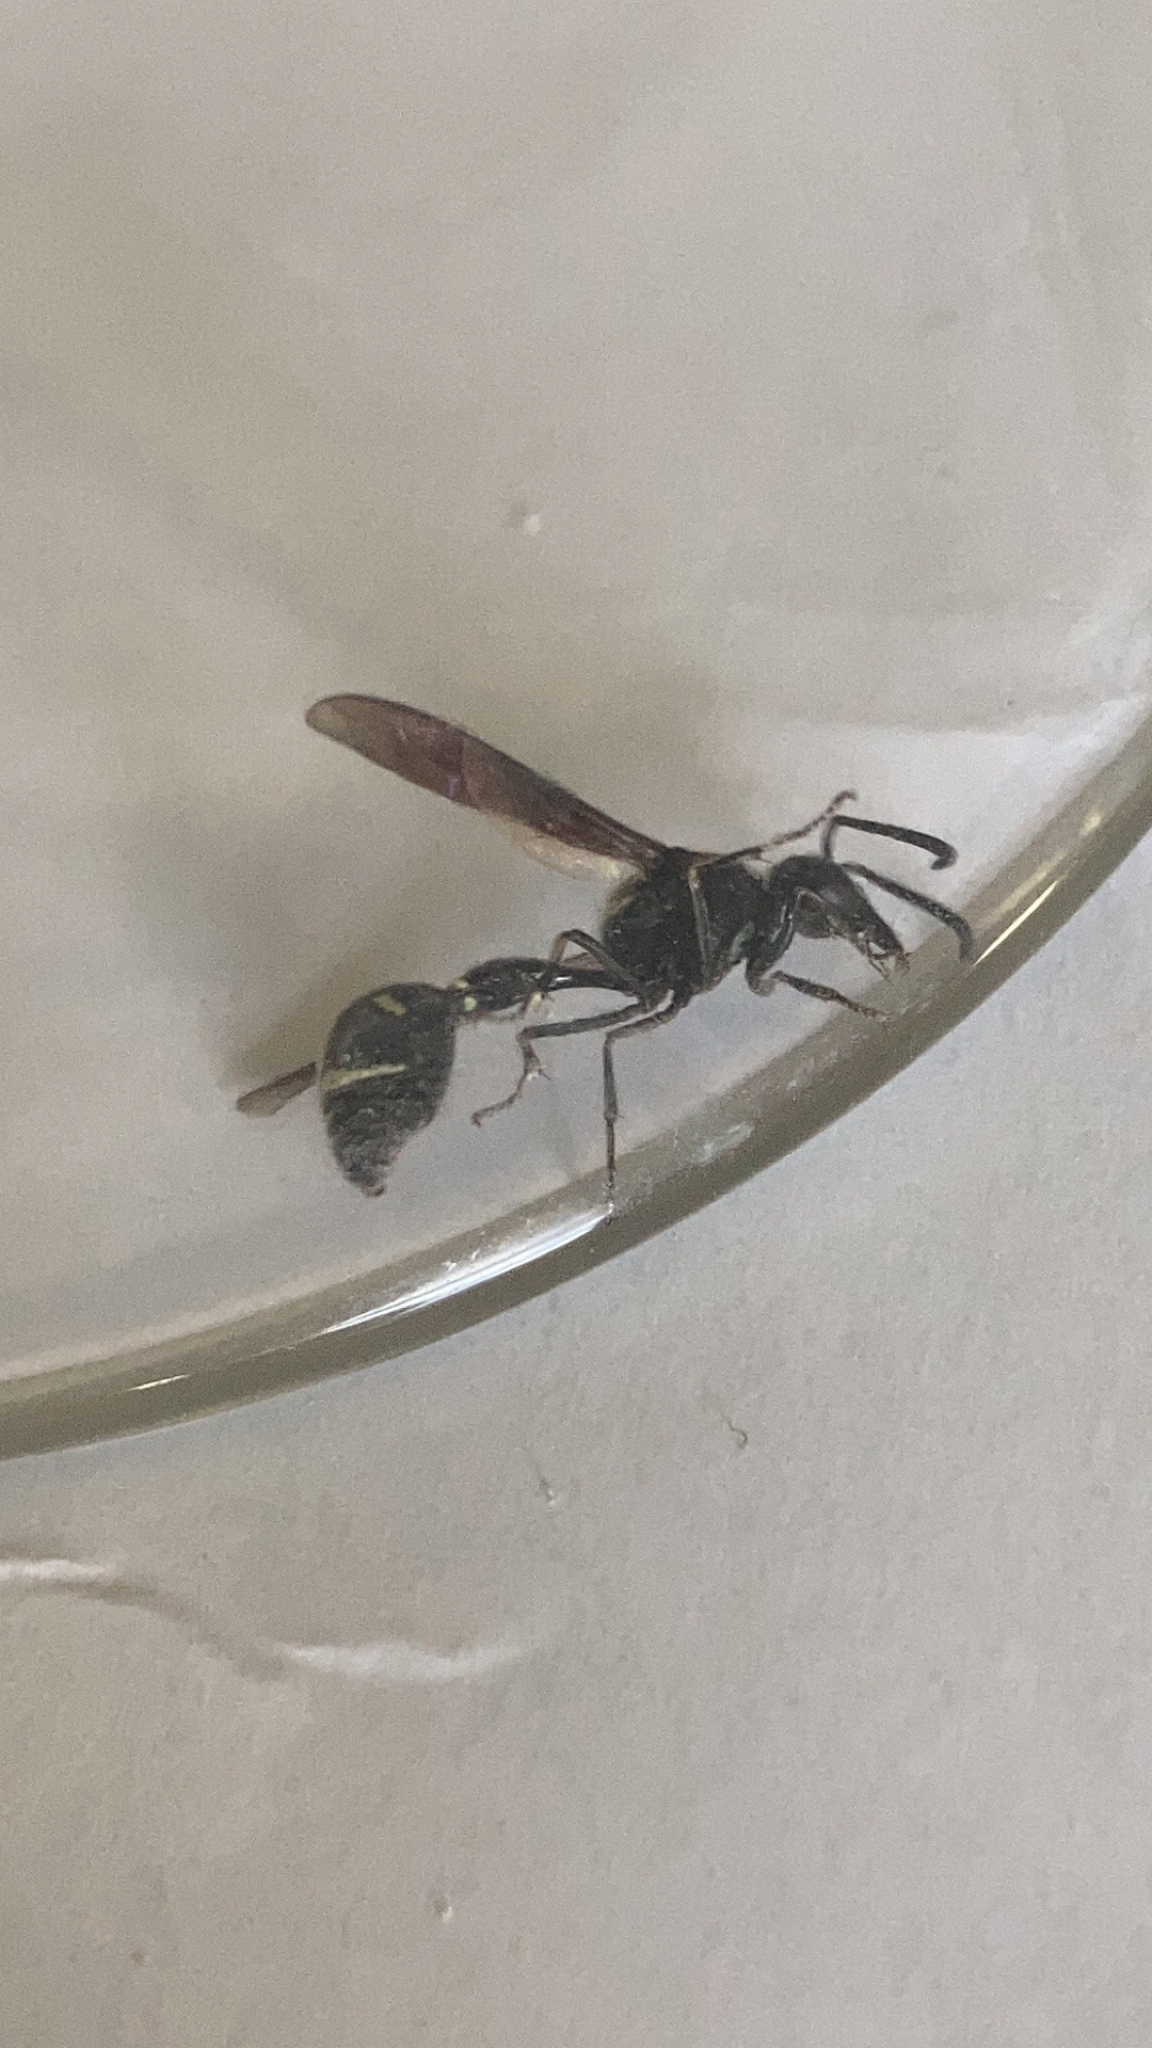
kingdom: Animalia
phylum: Arthropoda
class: Insecta
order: Hymenoptera
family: Vespidae
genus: Eumenes
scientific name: Eumenes fraternus
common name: Fraternal potter wasp
